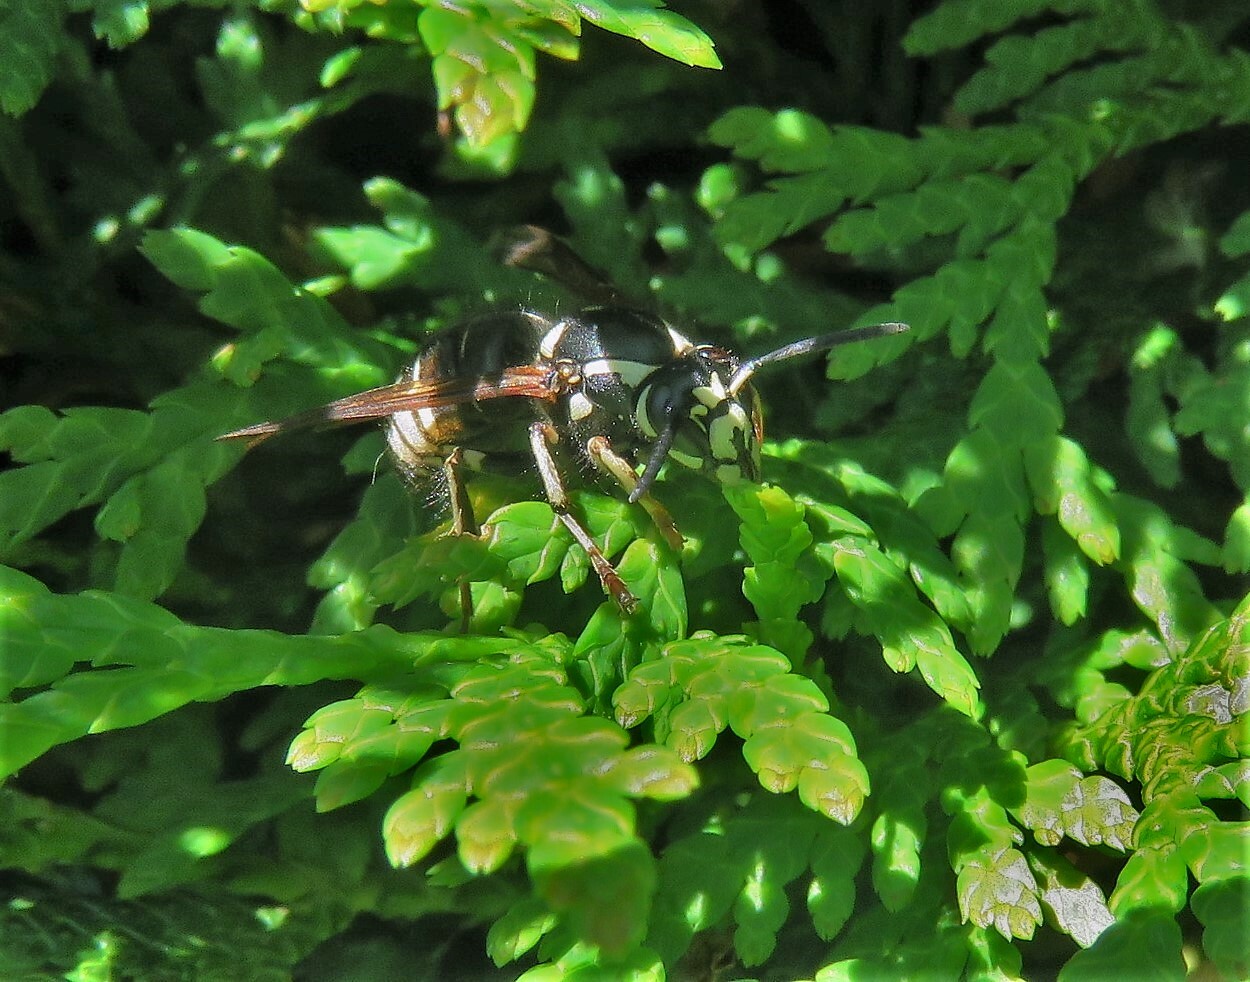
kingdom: Animalia
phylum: Arthropoda
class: Insecta
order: Hymenoptera
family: Vespidae
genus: Dolichovespula
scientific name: Dolichovespula adulterina
